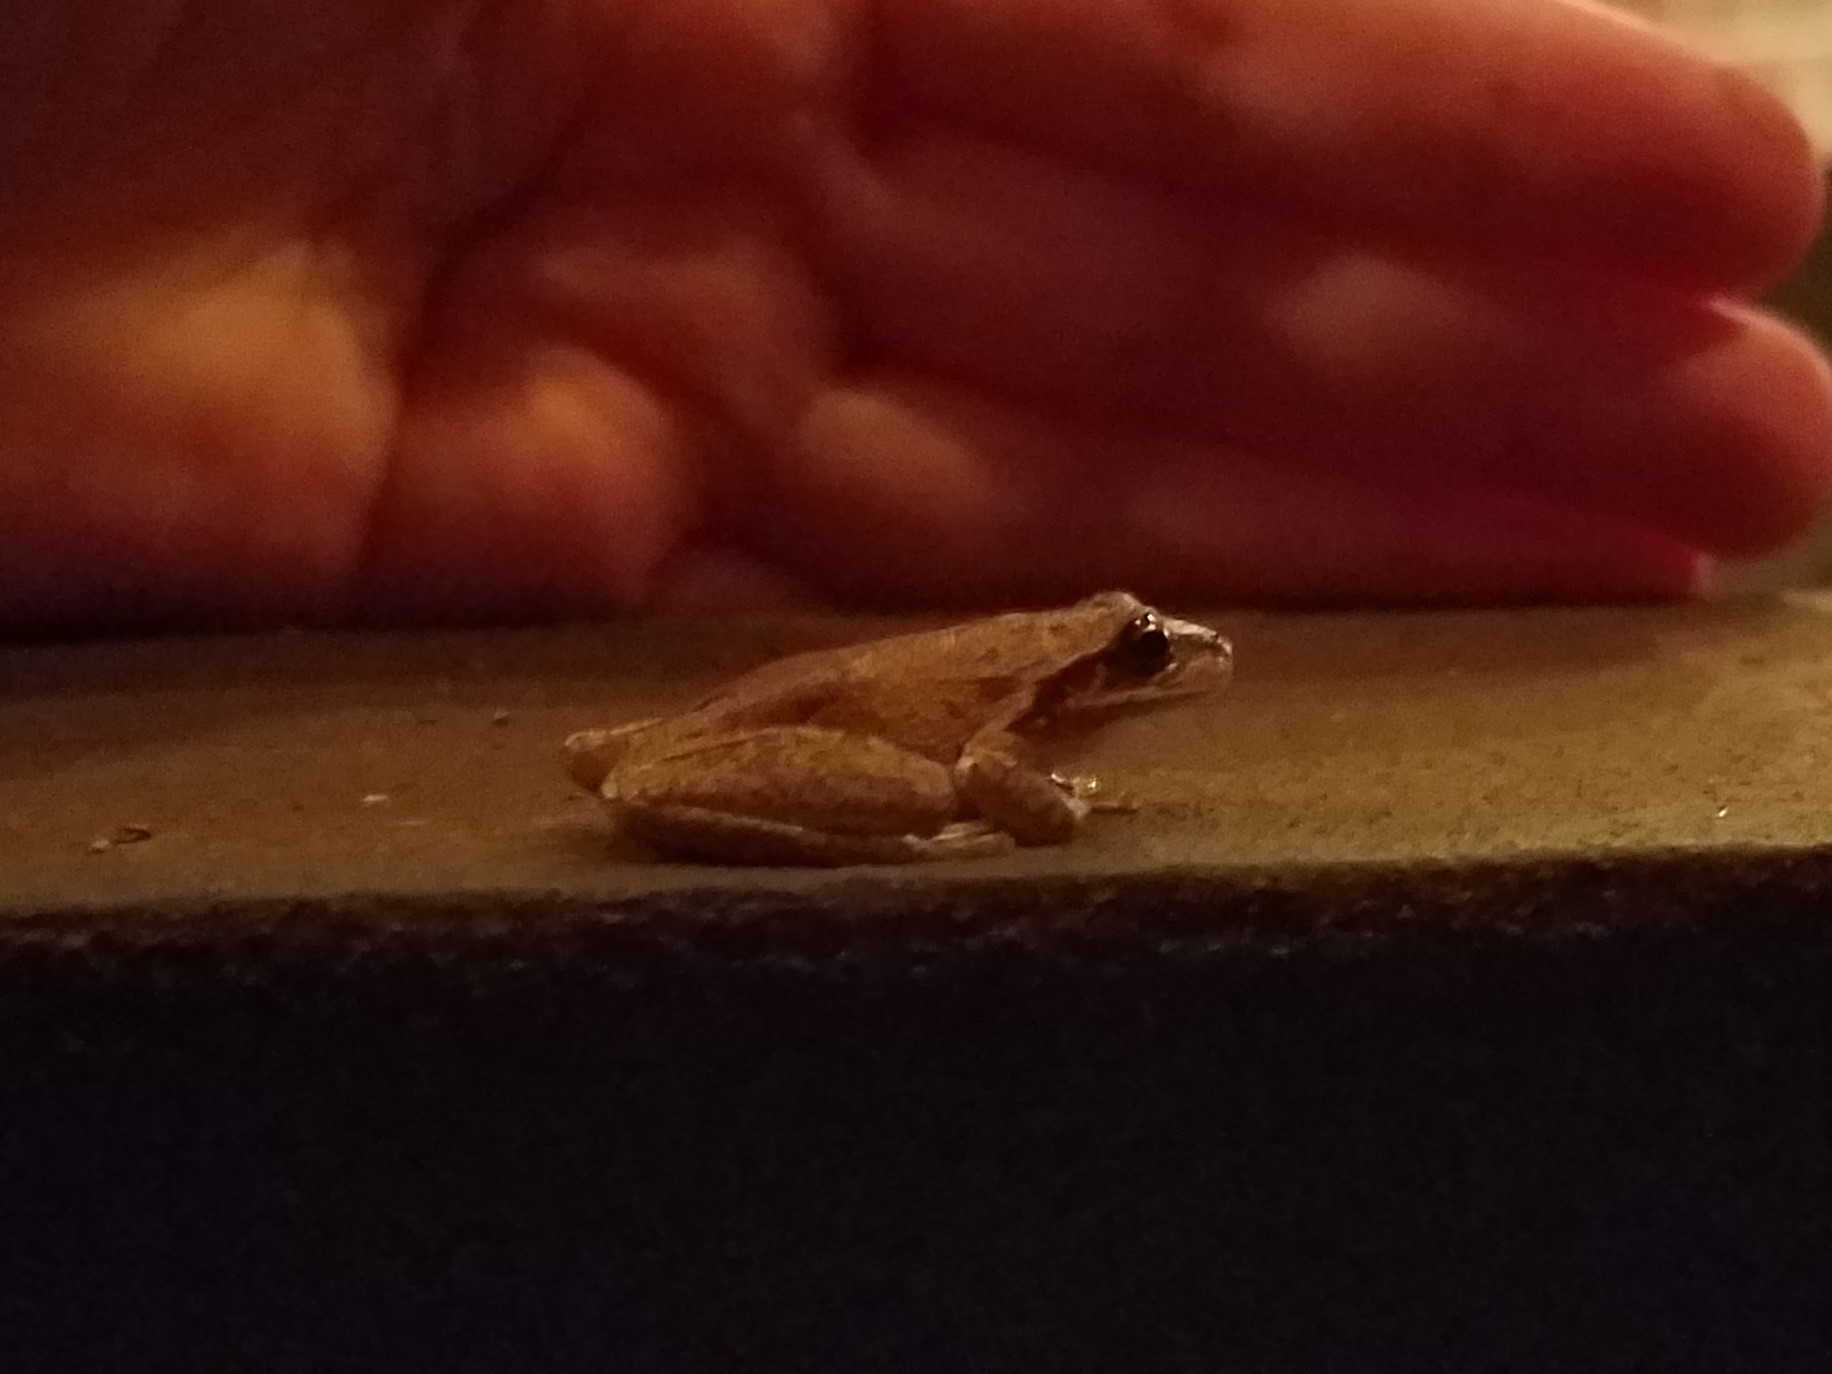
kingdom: Animalia
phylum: Chordata
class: Amphibia
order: Anura
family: Hylidae
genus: Dryophytes
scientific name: Dryophytes squirellus
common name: Squirrel treefrog
